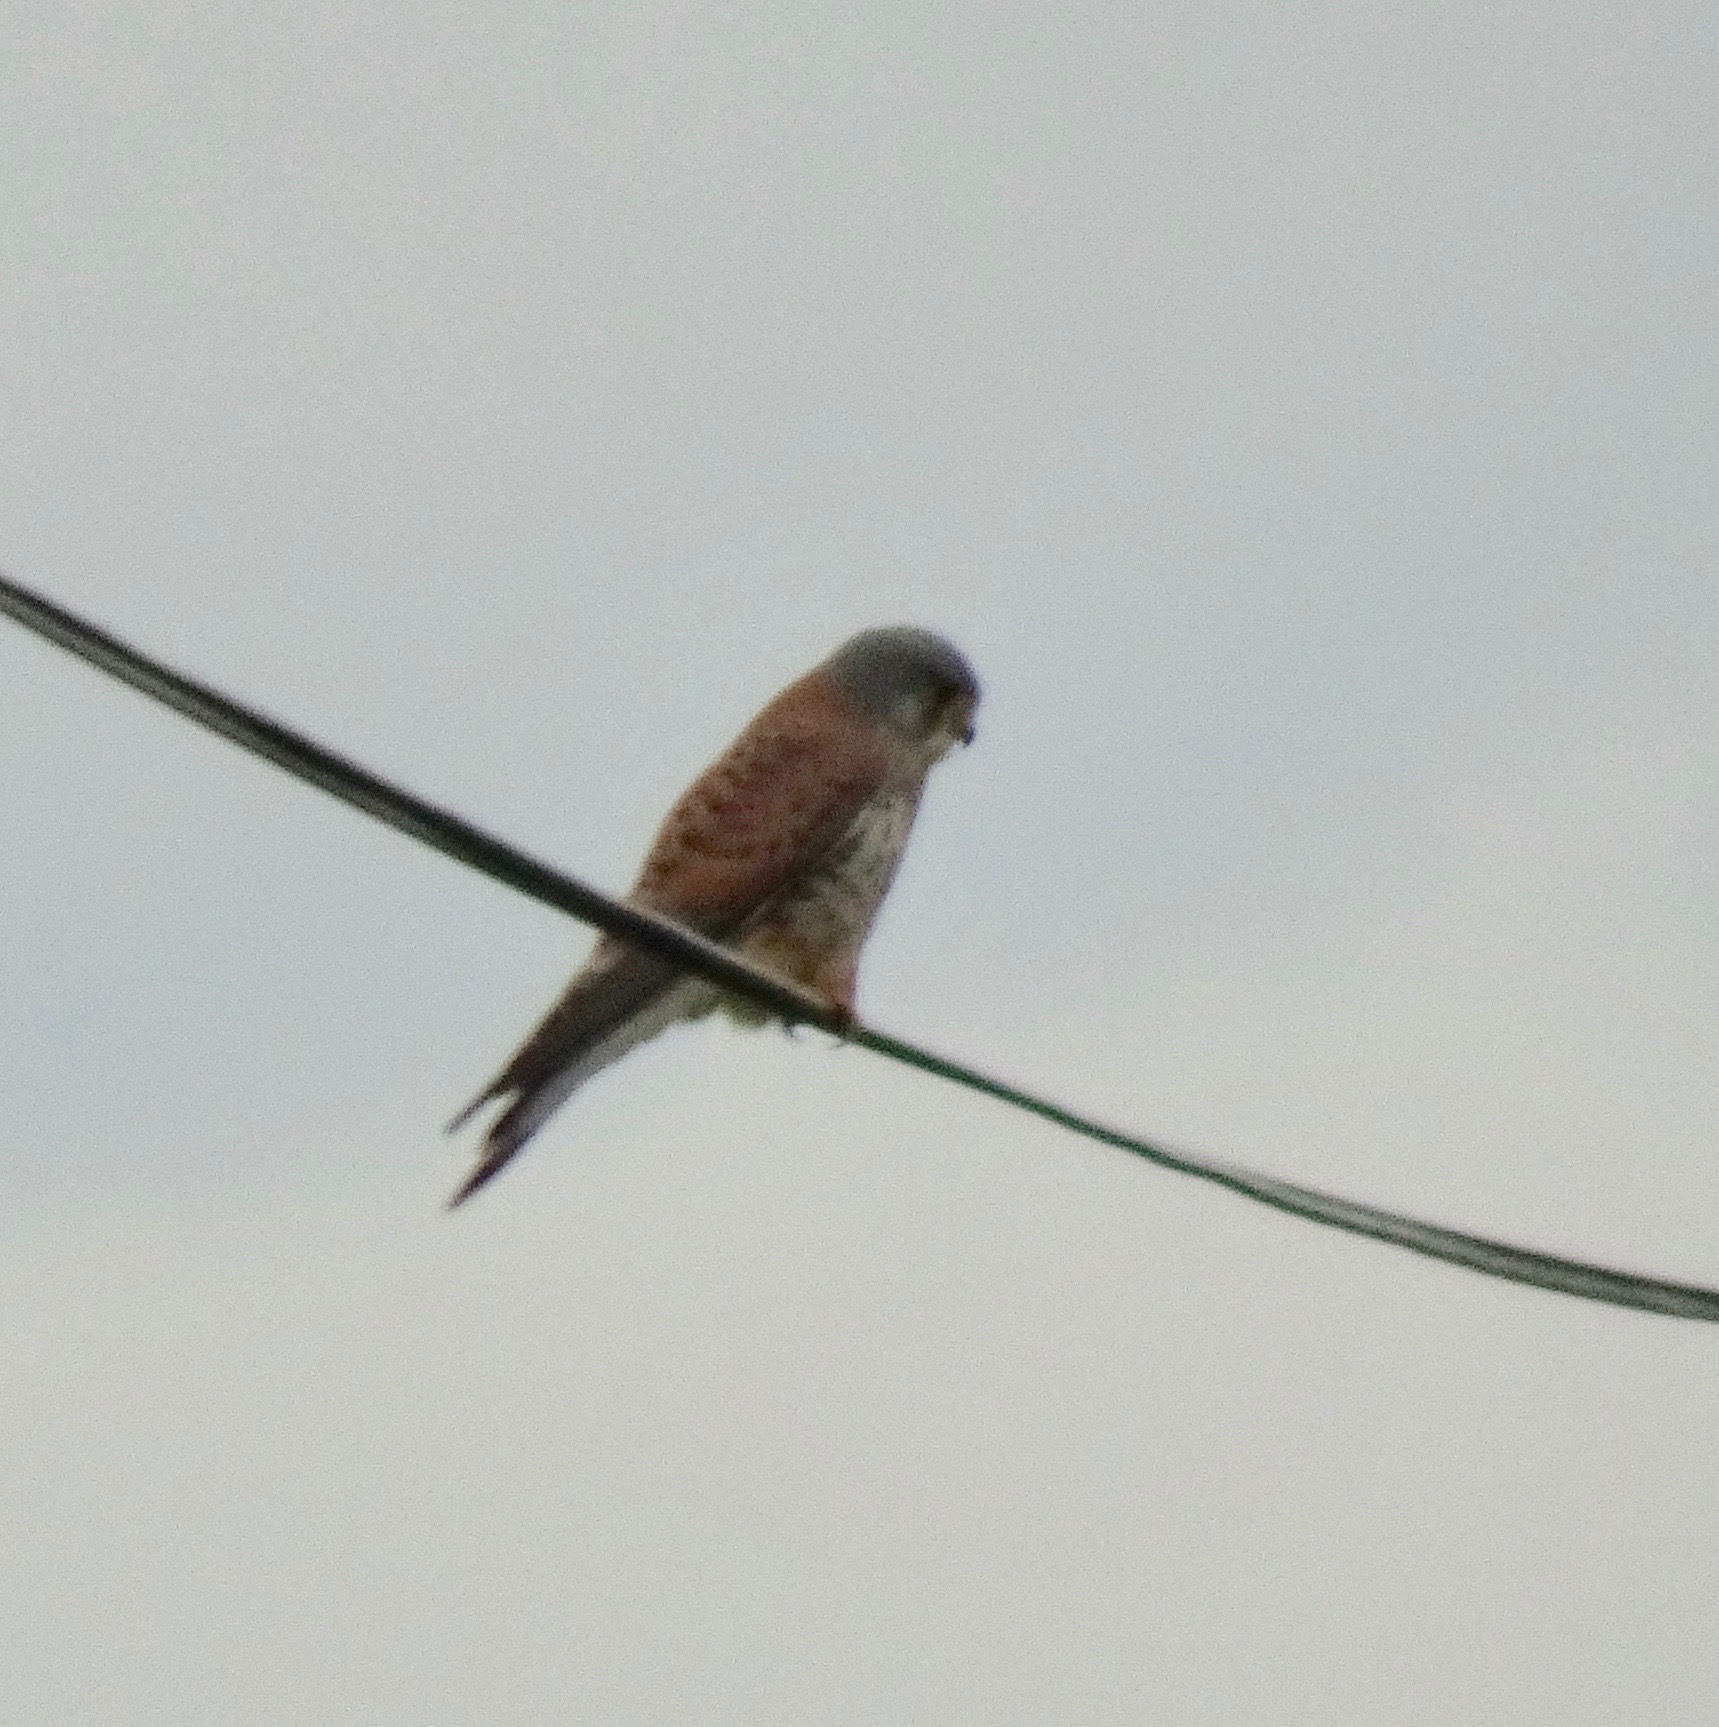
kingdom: Animalia
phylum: Chordata
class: Aves
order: Falconiformes
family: Falconidae
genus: Falco
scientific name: Falco tinnunculus
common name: Common kestrel
